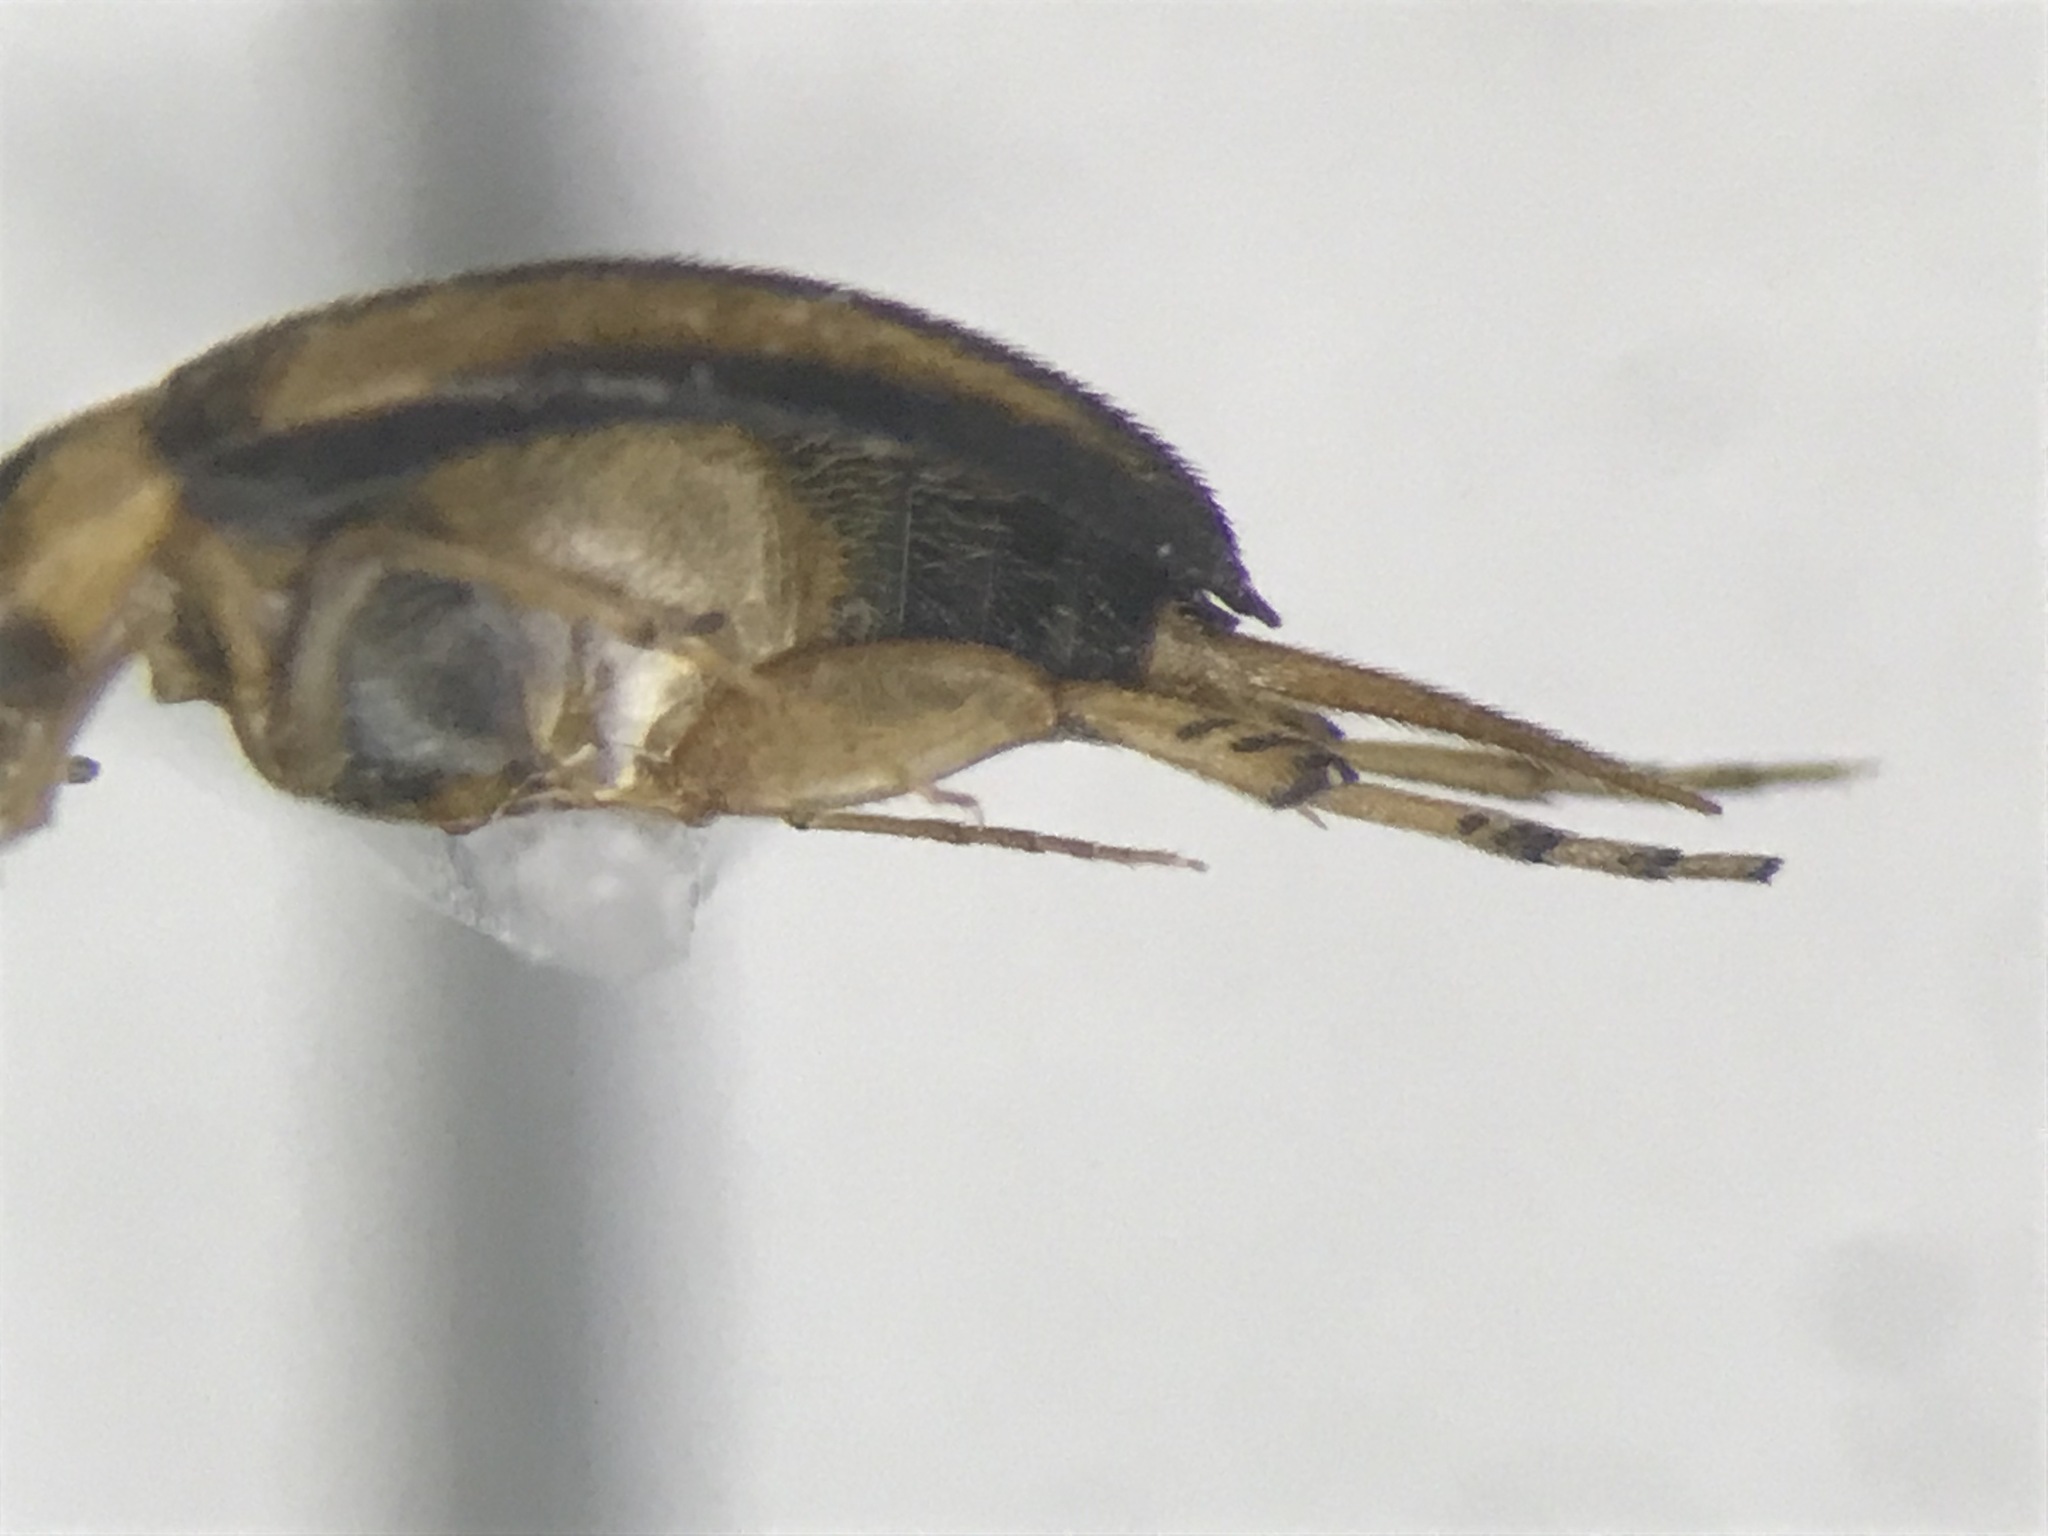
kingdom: Animalia
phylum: Arthropoda
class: Insecta
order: Coleoptera
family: Mordellidae
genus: Mordellistena
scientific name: Mordellistena limbalis
